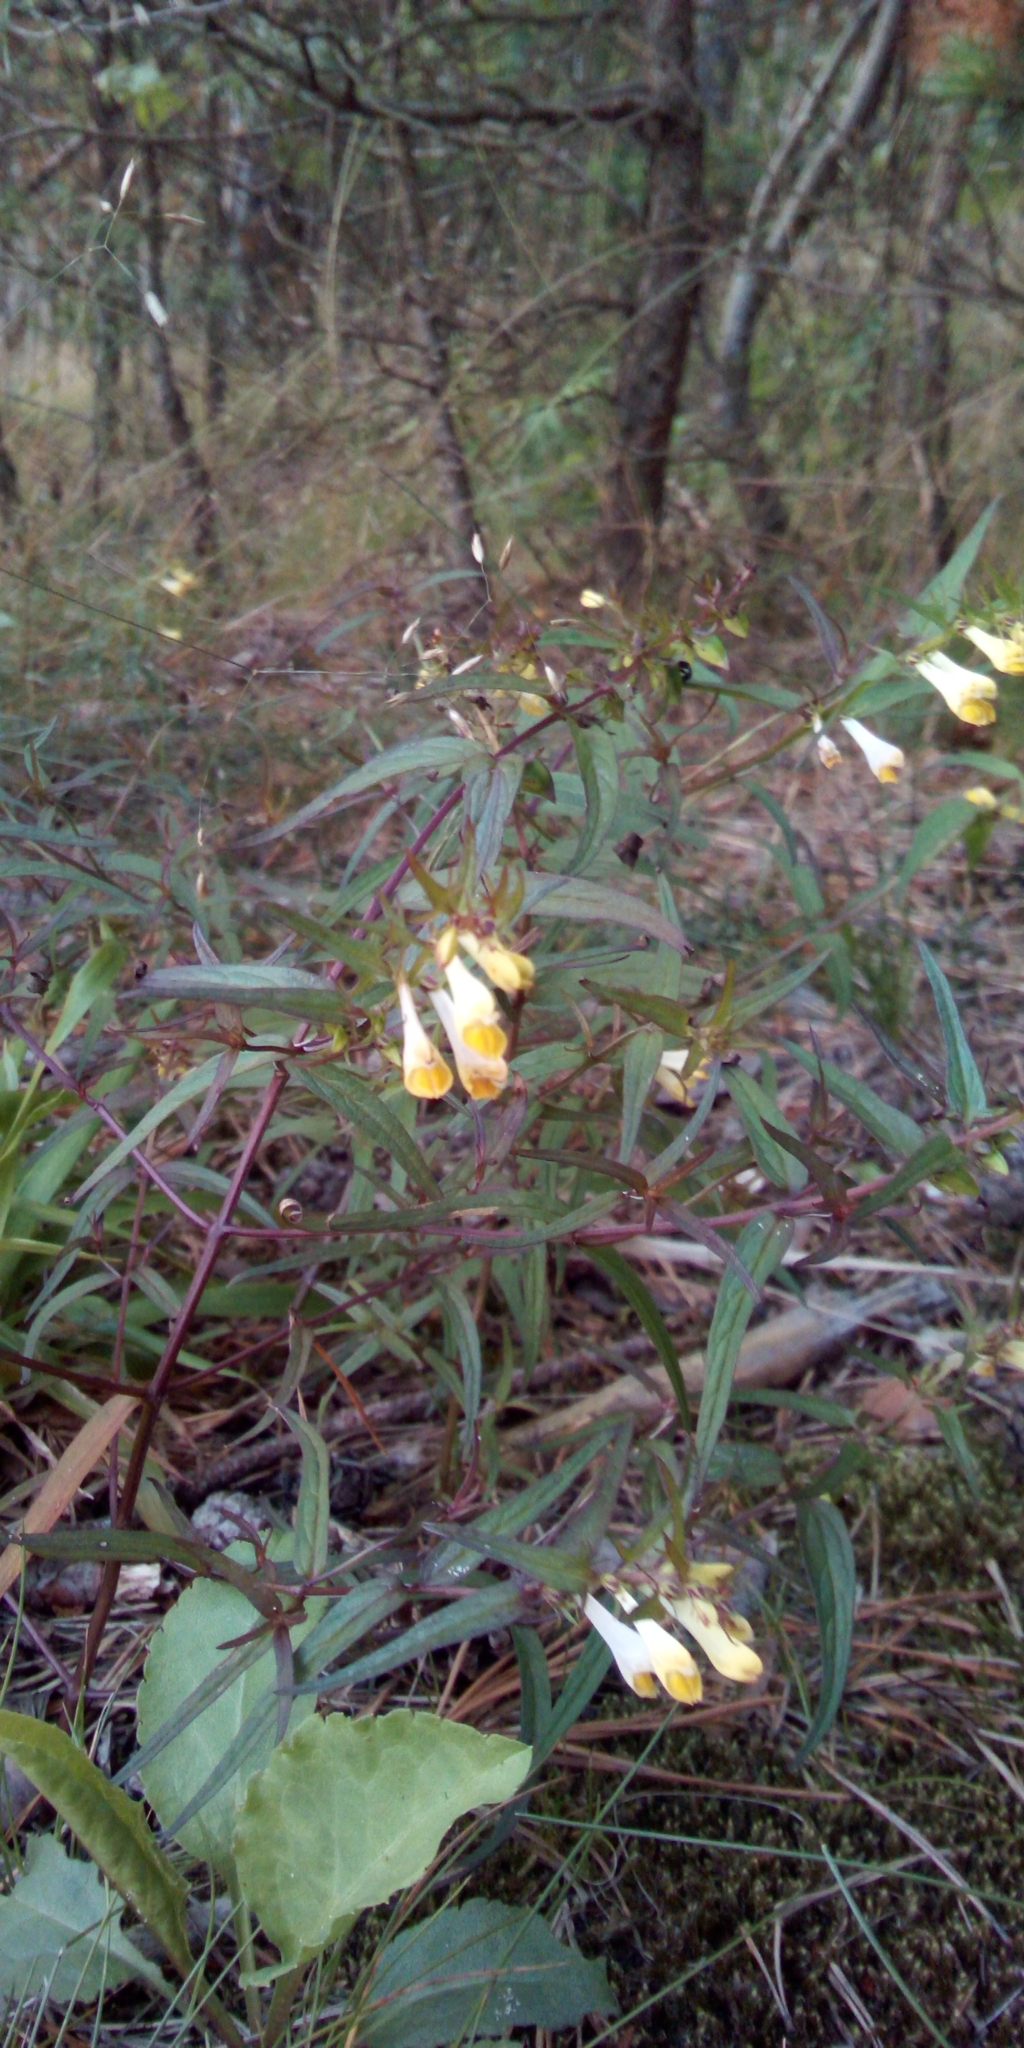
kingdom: Plantae
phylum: Tracheophyta
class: Magnoliopsida
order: Lamiales
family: Orobanchaceae
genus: Melampyrum
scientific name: Melampyrum pratense
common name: Common cow-wheat
